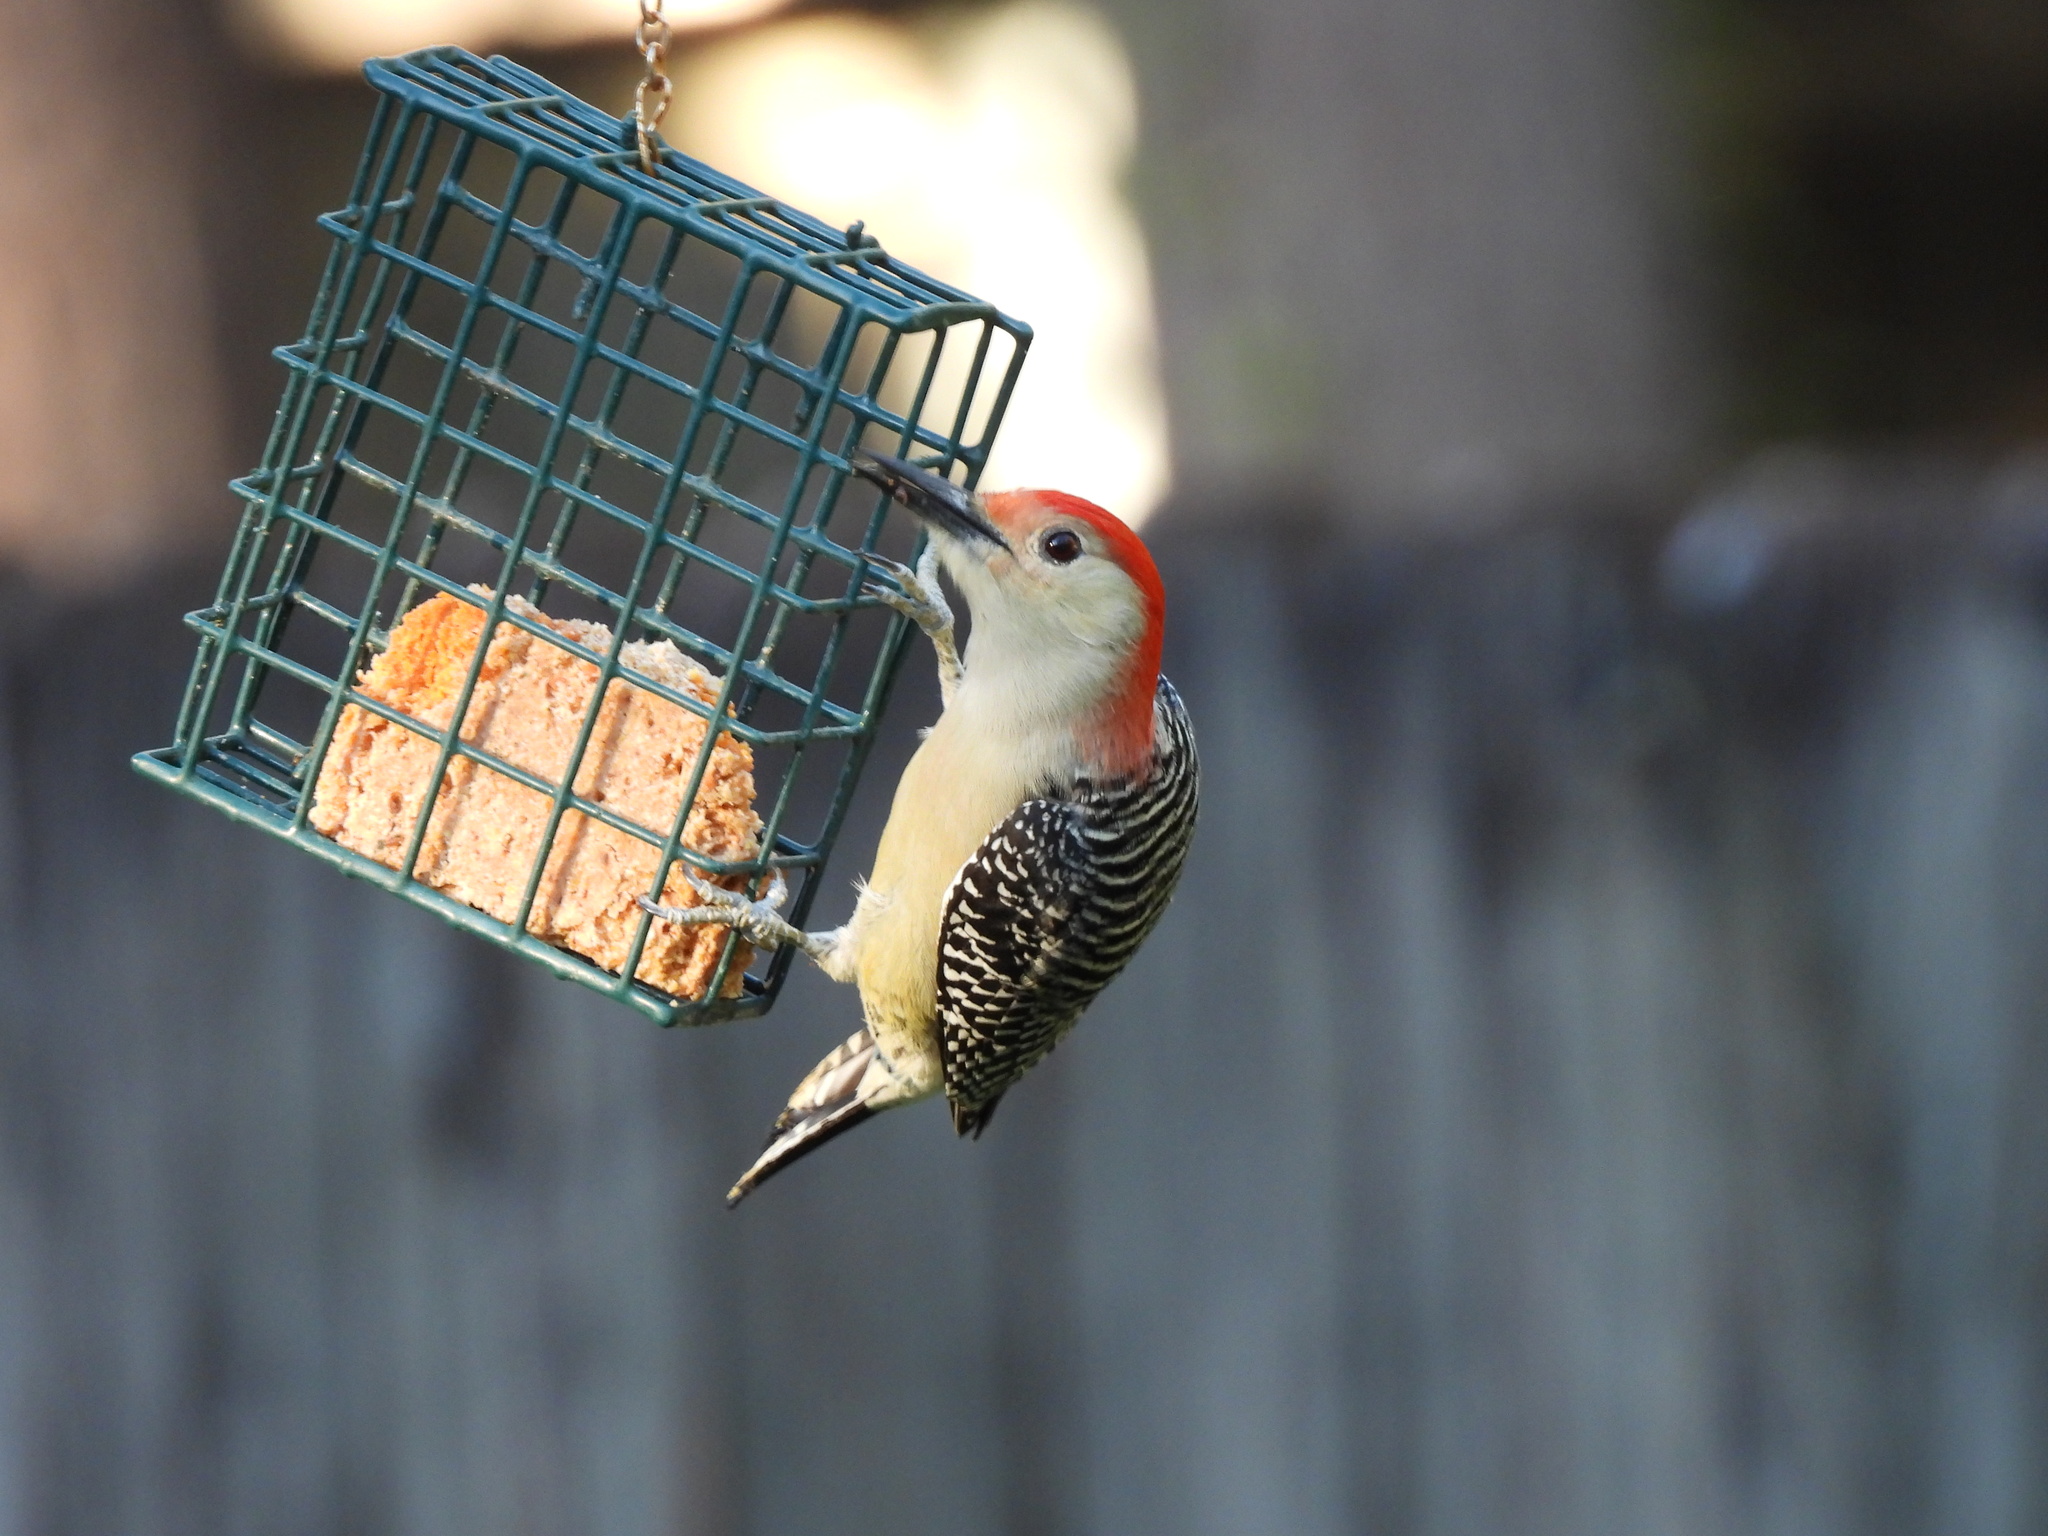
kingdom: Animalia
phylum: Chordata
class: Aves
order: Piciformes
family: Picidae
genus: Melanerpes
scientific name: Melanerpes carolinus
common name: Red-bellied woodpecker
